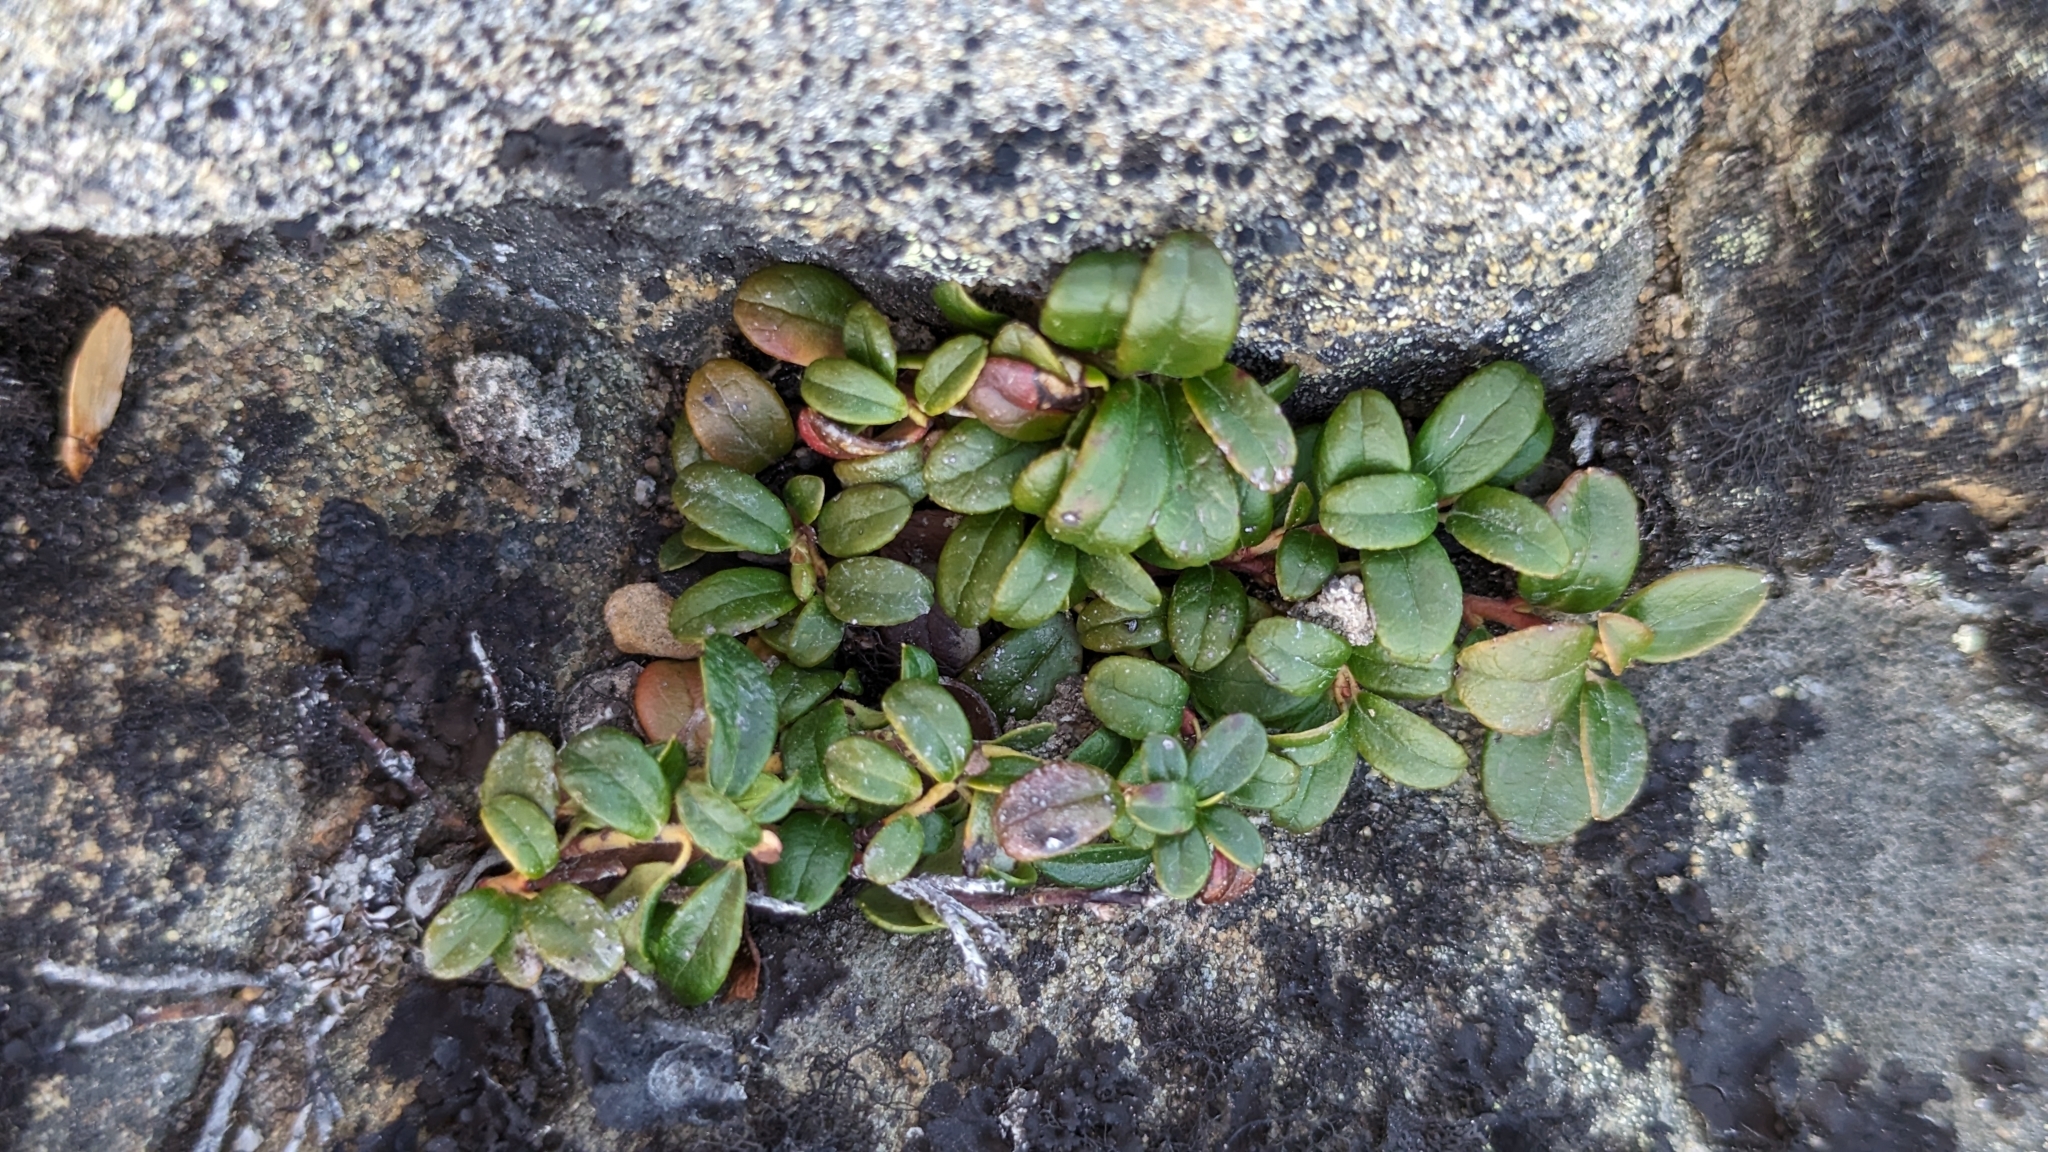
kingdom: Plantae
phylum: Tracheophyta
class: Magnoliopsida
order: Ericales
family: Ericaceae
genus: Vaccinium
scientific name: Vaccinium vitis-idaea
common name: Cowberry
